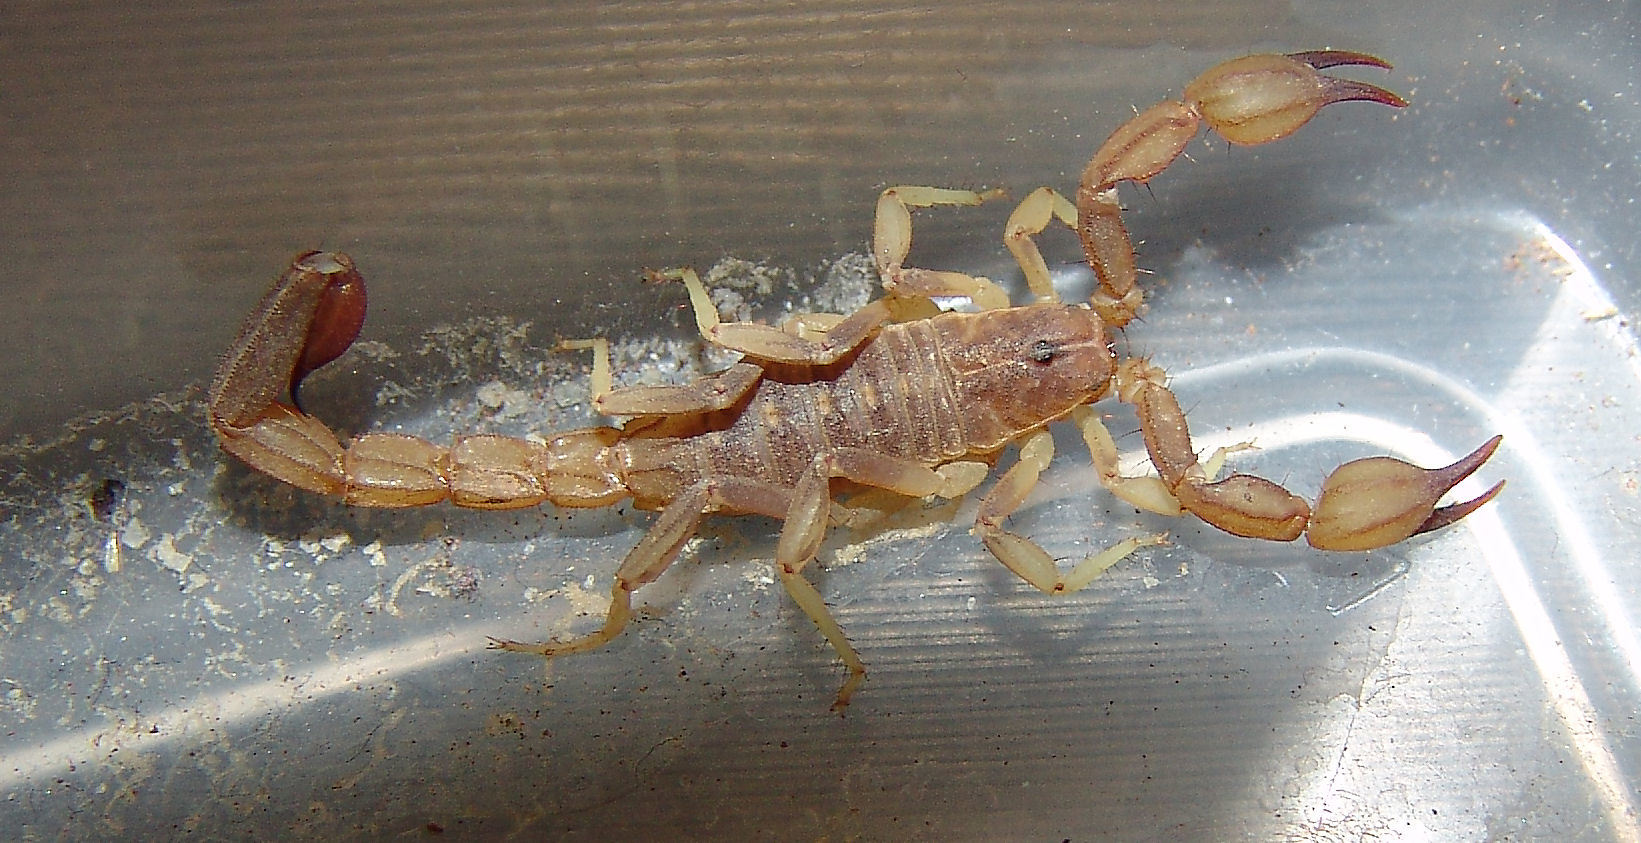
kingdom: Animalia
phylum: Arthropoda
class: Arachnida
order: Scorpiones
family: Vaejovidae
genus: Chihuahuanus
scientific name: Chihuahuanus crassimanus
